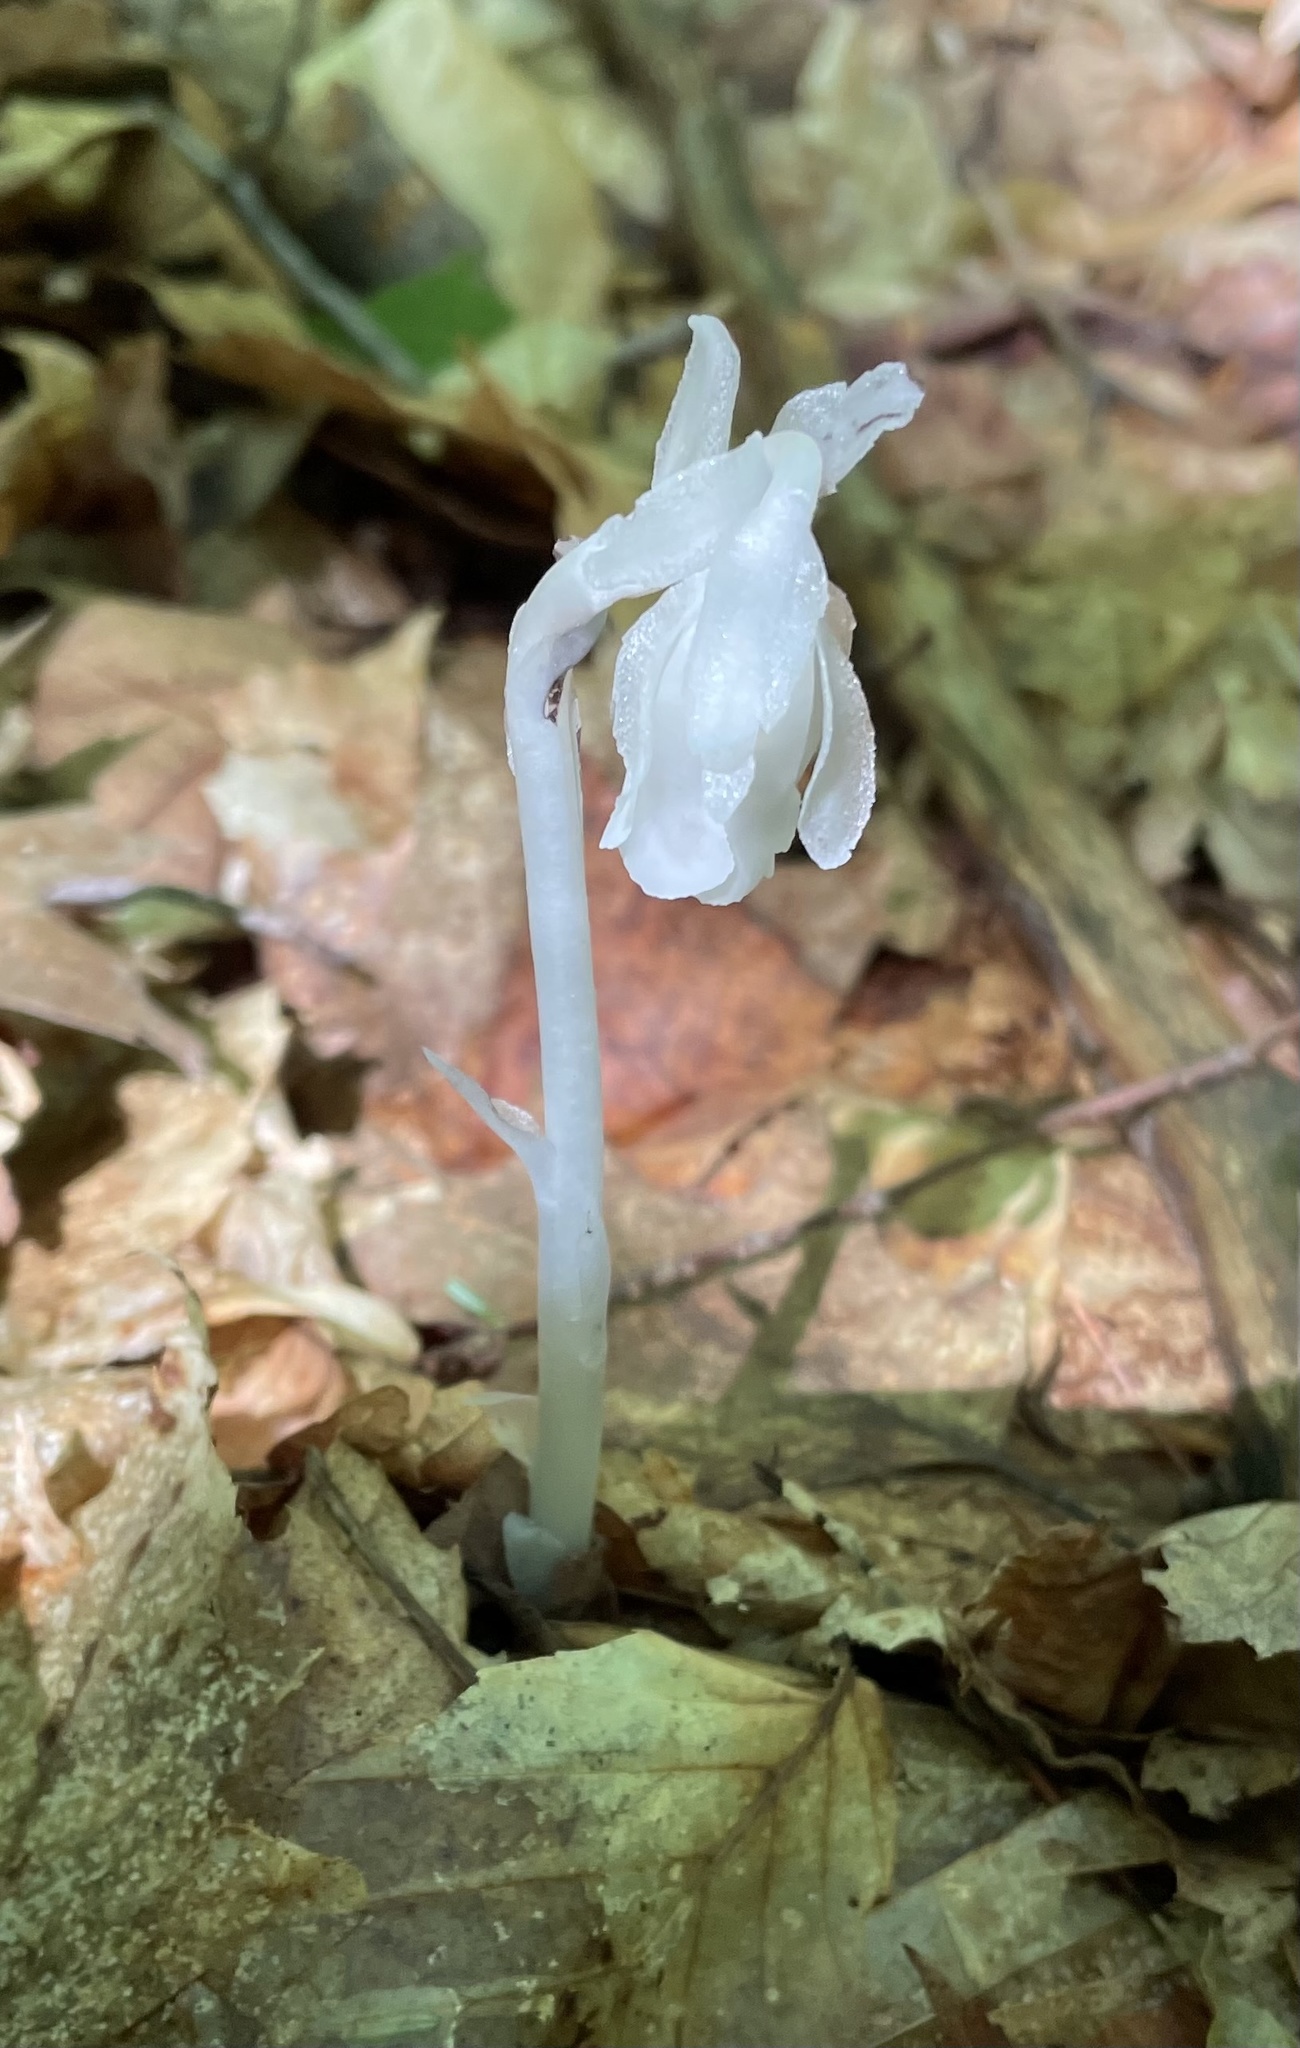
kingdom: Plantae
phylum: Tracheophyta
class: Magnoliopsida
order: Ericales
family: Ericaceae
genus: Monotropa
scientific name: Monotropa uniflora
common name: Convulsion root
